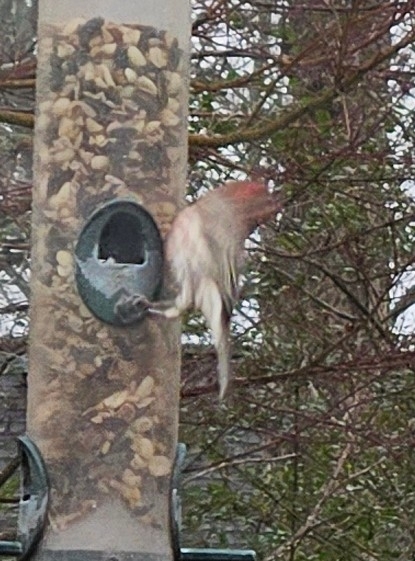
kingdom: Animalia
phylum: Chordata
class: Aves
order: Passeriformes
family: Fringillidae
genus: Haemorhous
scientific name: Haemorhous mexicanus
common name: House finch
